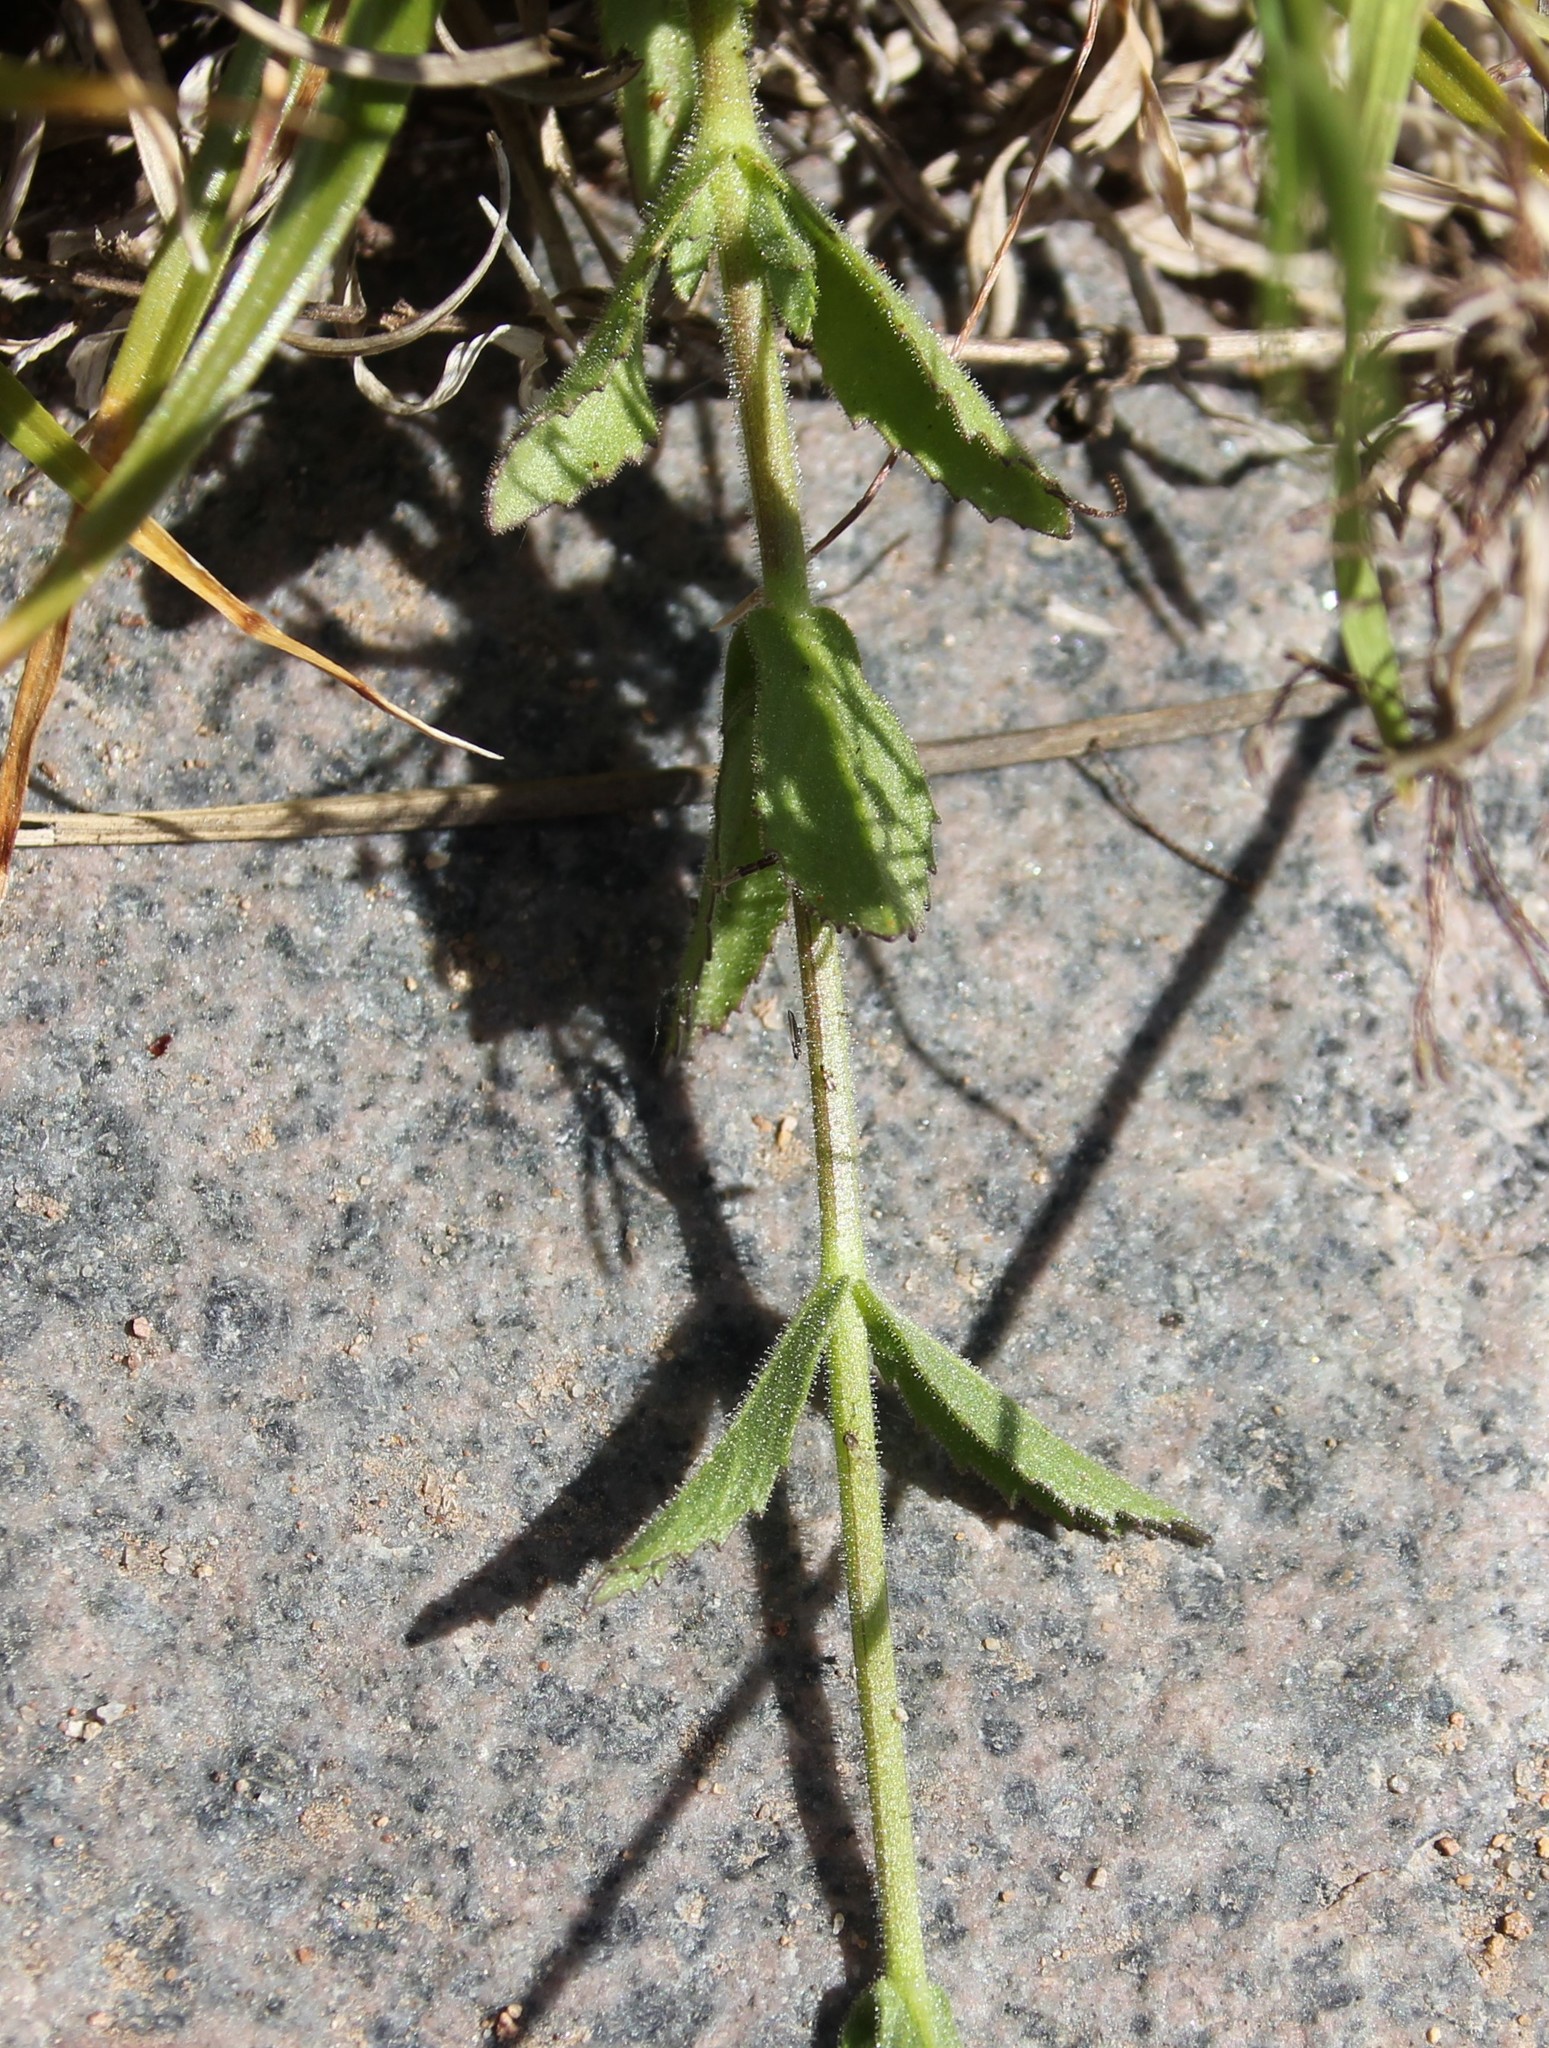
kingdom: Plantae
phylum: Tracheophyta
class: Magnoliopsida
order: Lamiales
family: Plantaginaceae
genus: Stemodia
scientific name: Stemodia durantifolia
